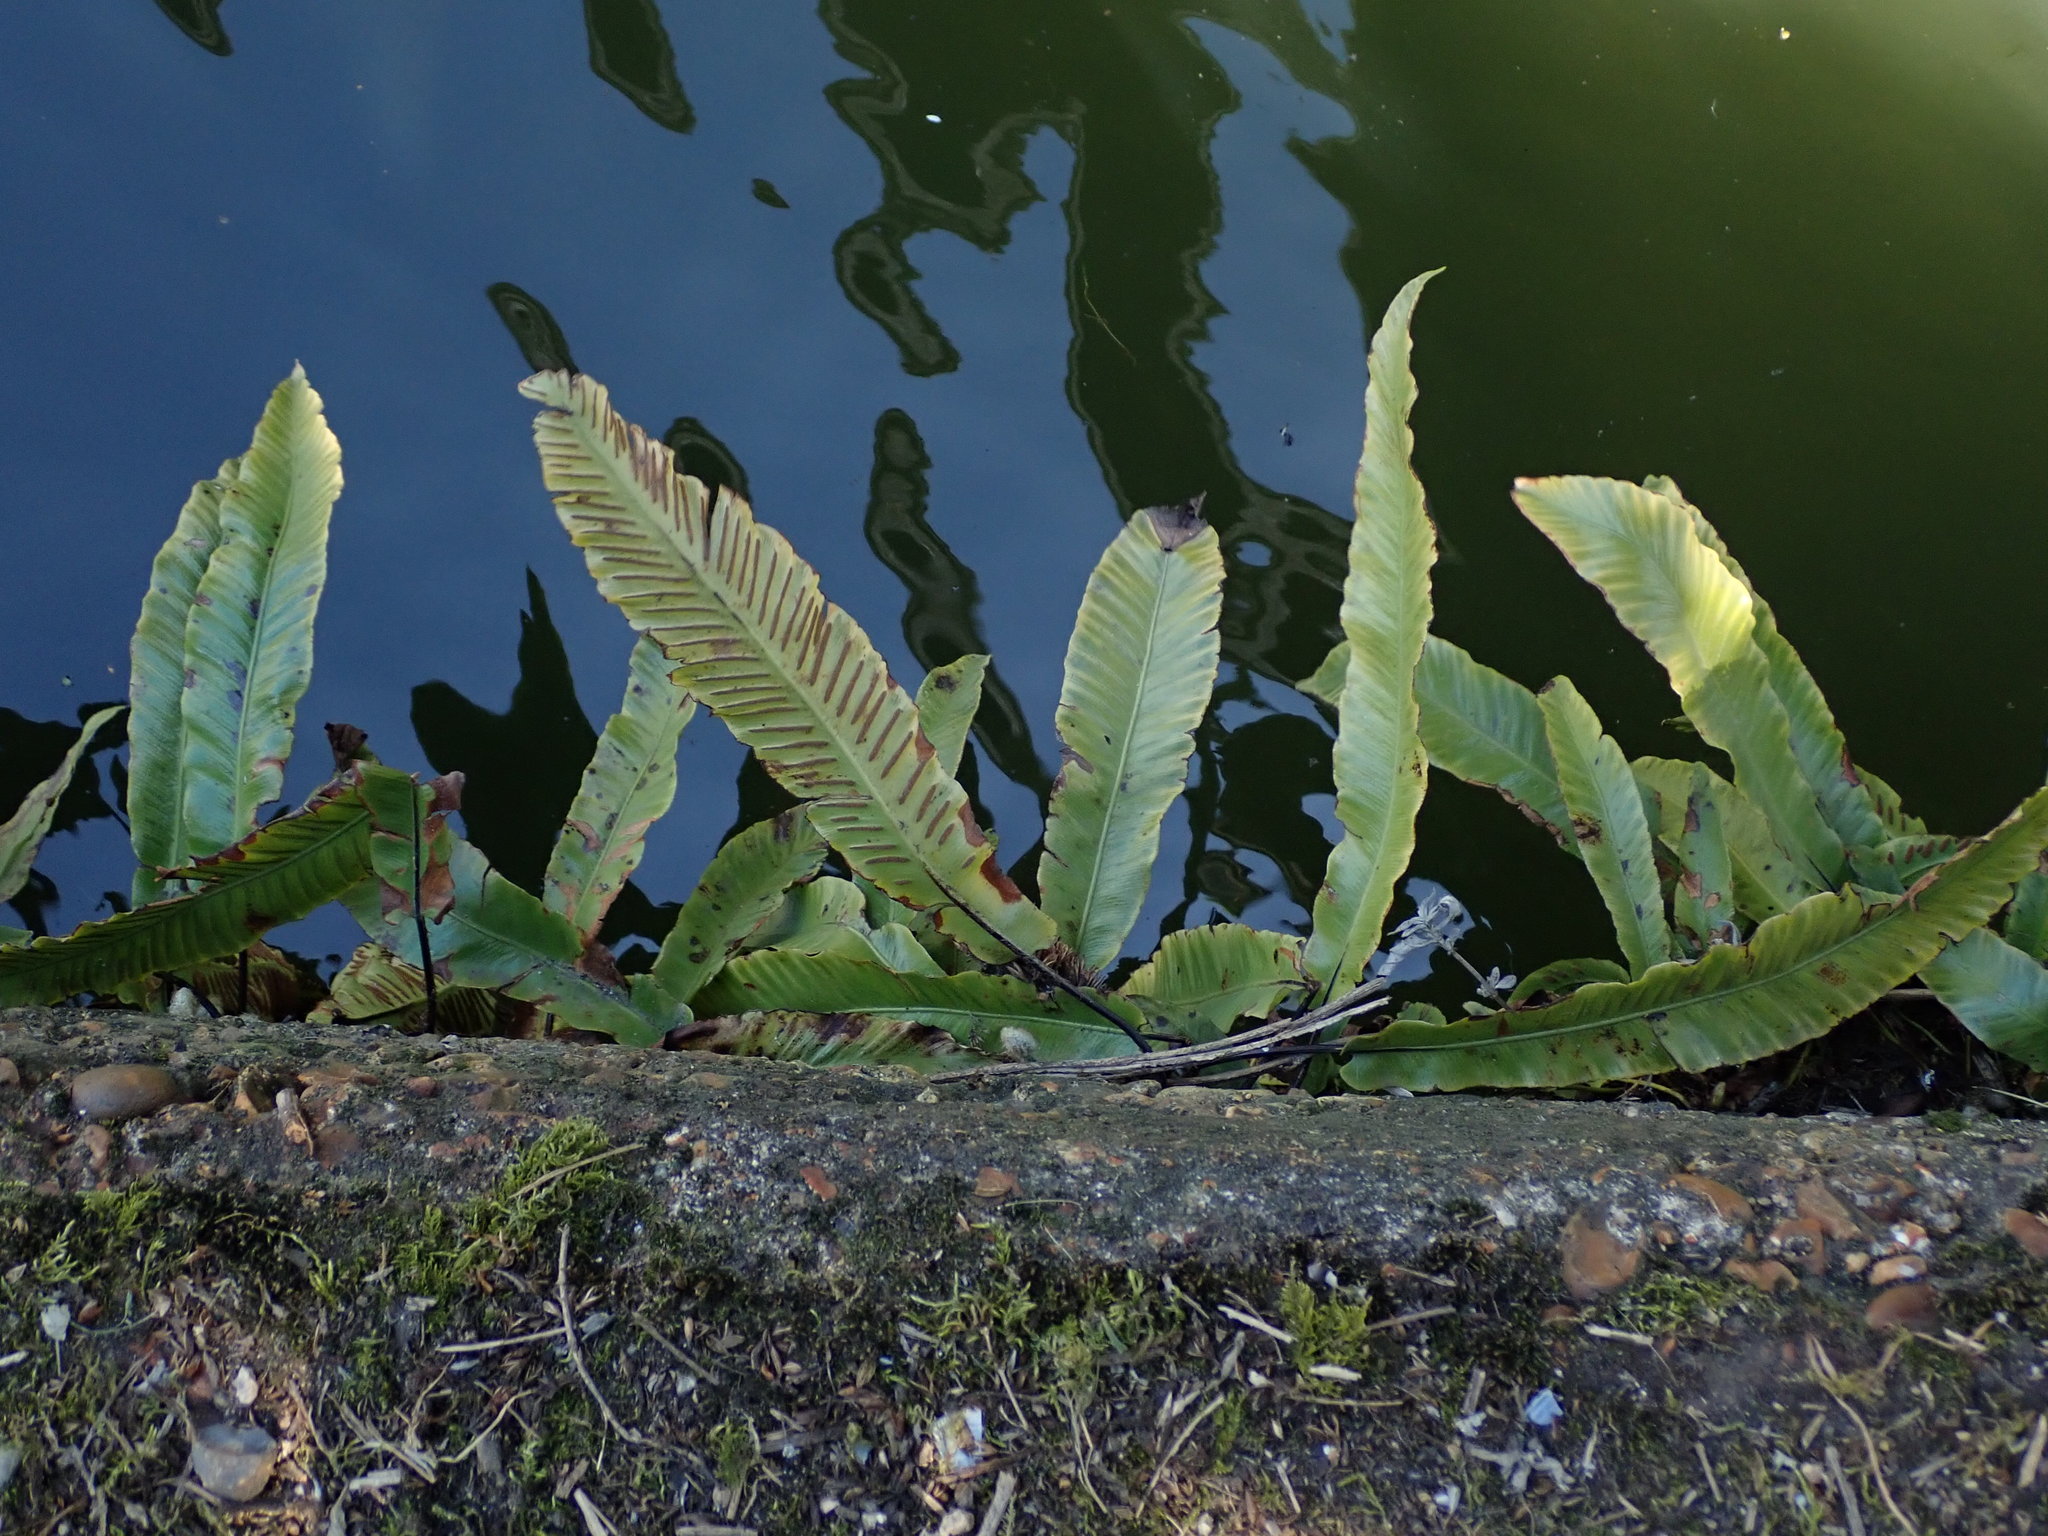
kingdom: Plantae
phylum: Tracheophyta
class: Polypodiopsida
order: Polypodiales
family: Aspleniaceae
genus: Asplenium
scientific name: Asplenium scolopendrium
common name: Hart's-tongue fern
